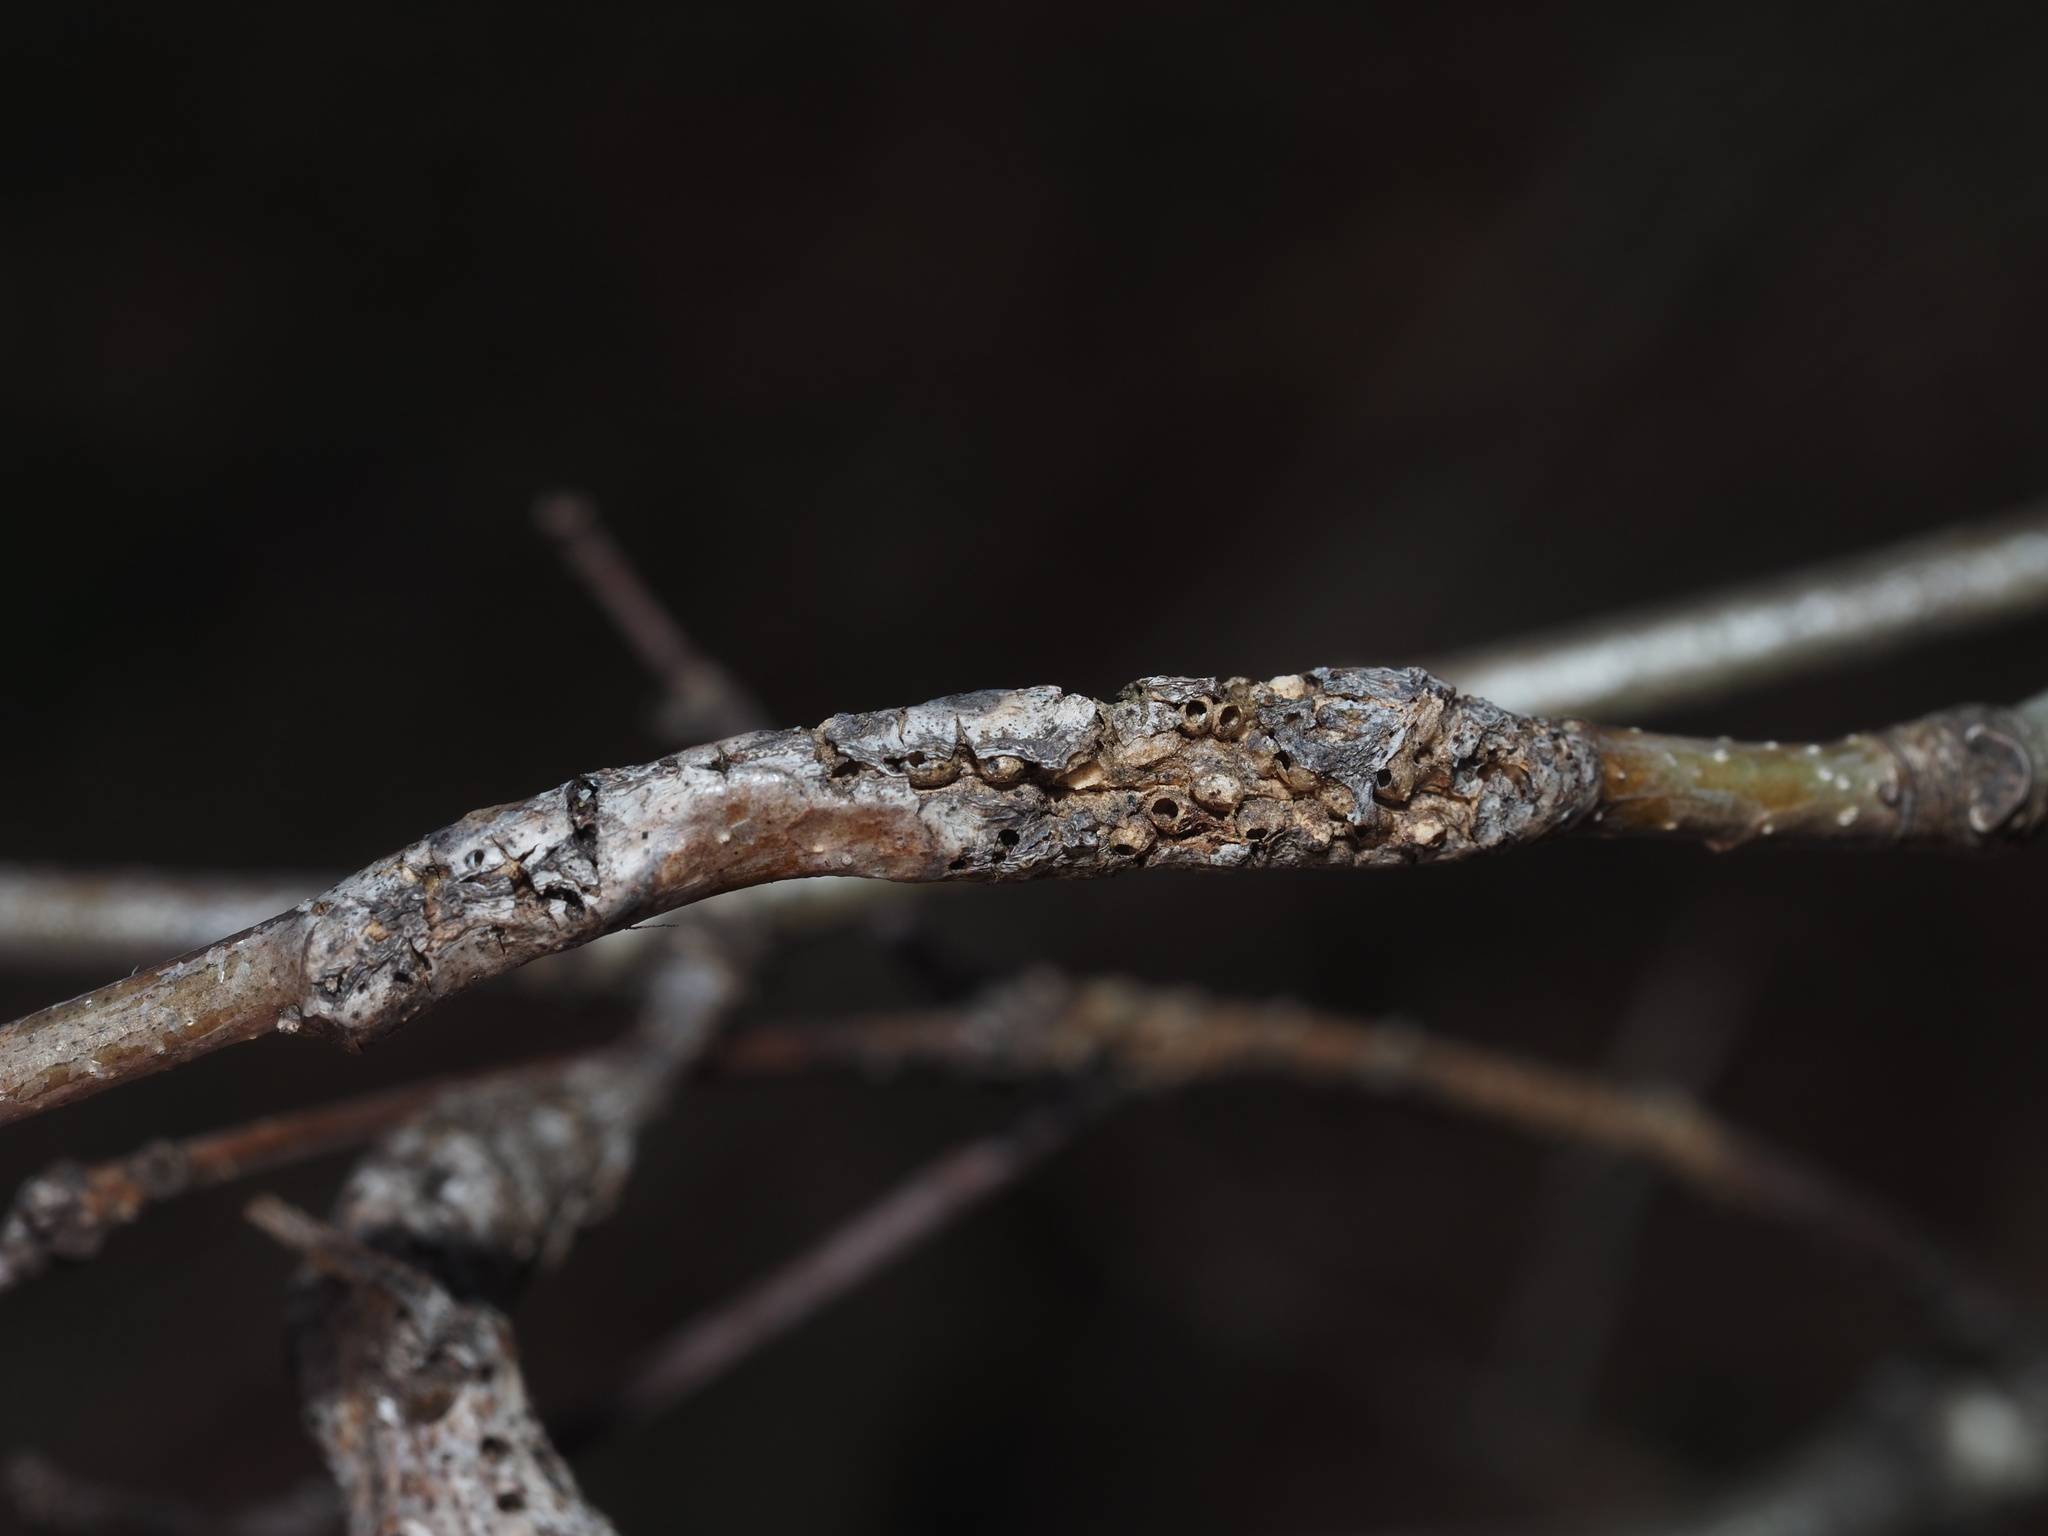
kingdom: Animalia
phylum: Arthropoda
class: Insecta
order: Hymenoptera
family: Cynipidae
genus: Neuroterus
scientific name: Neuroterus quercusbaccarum
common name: Common spangle gall
